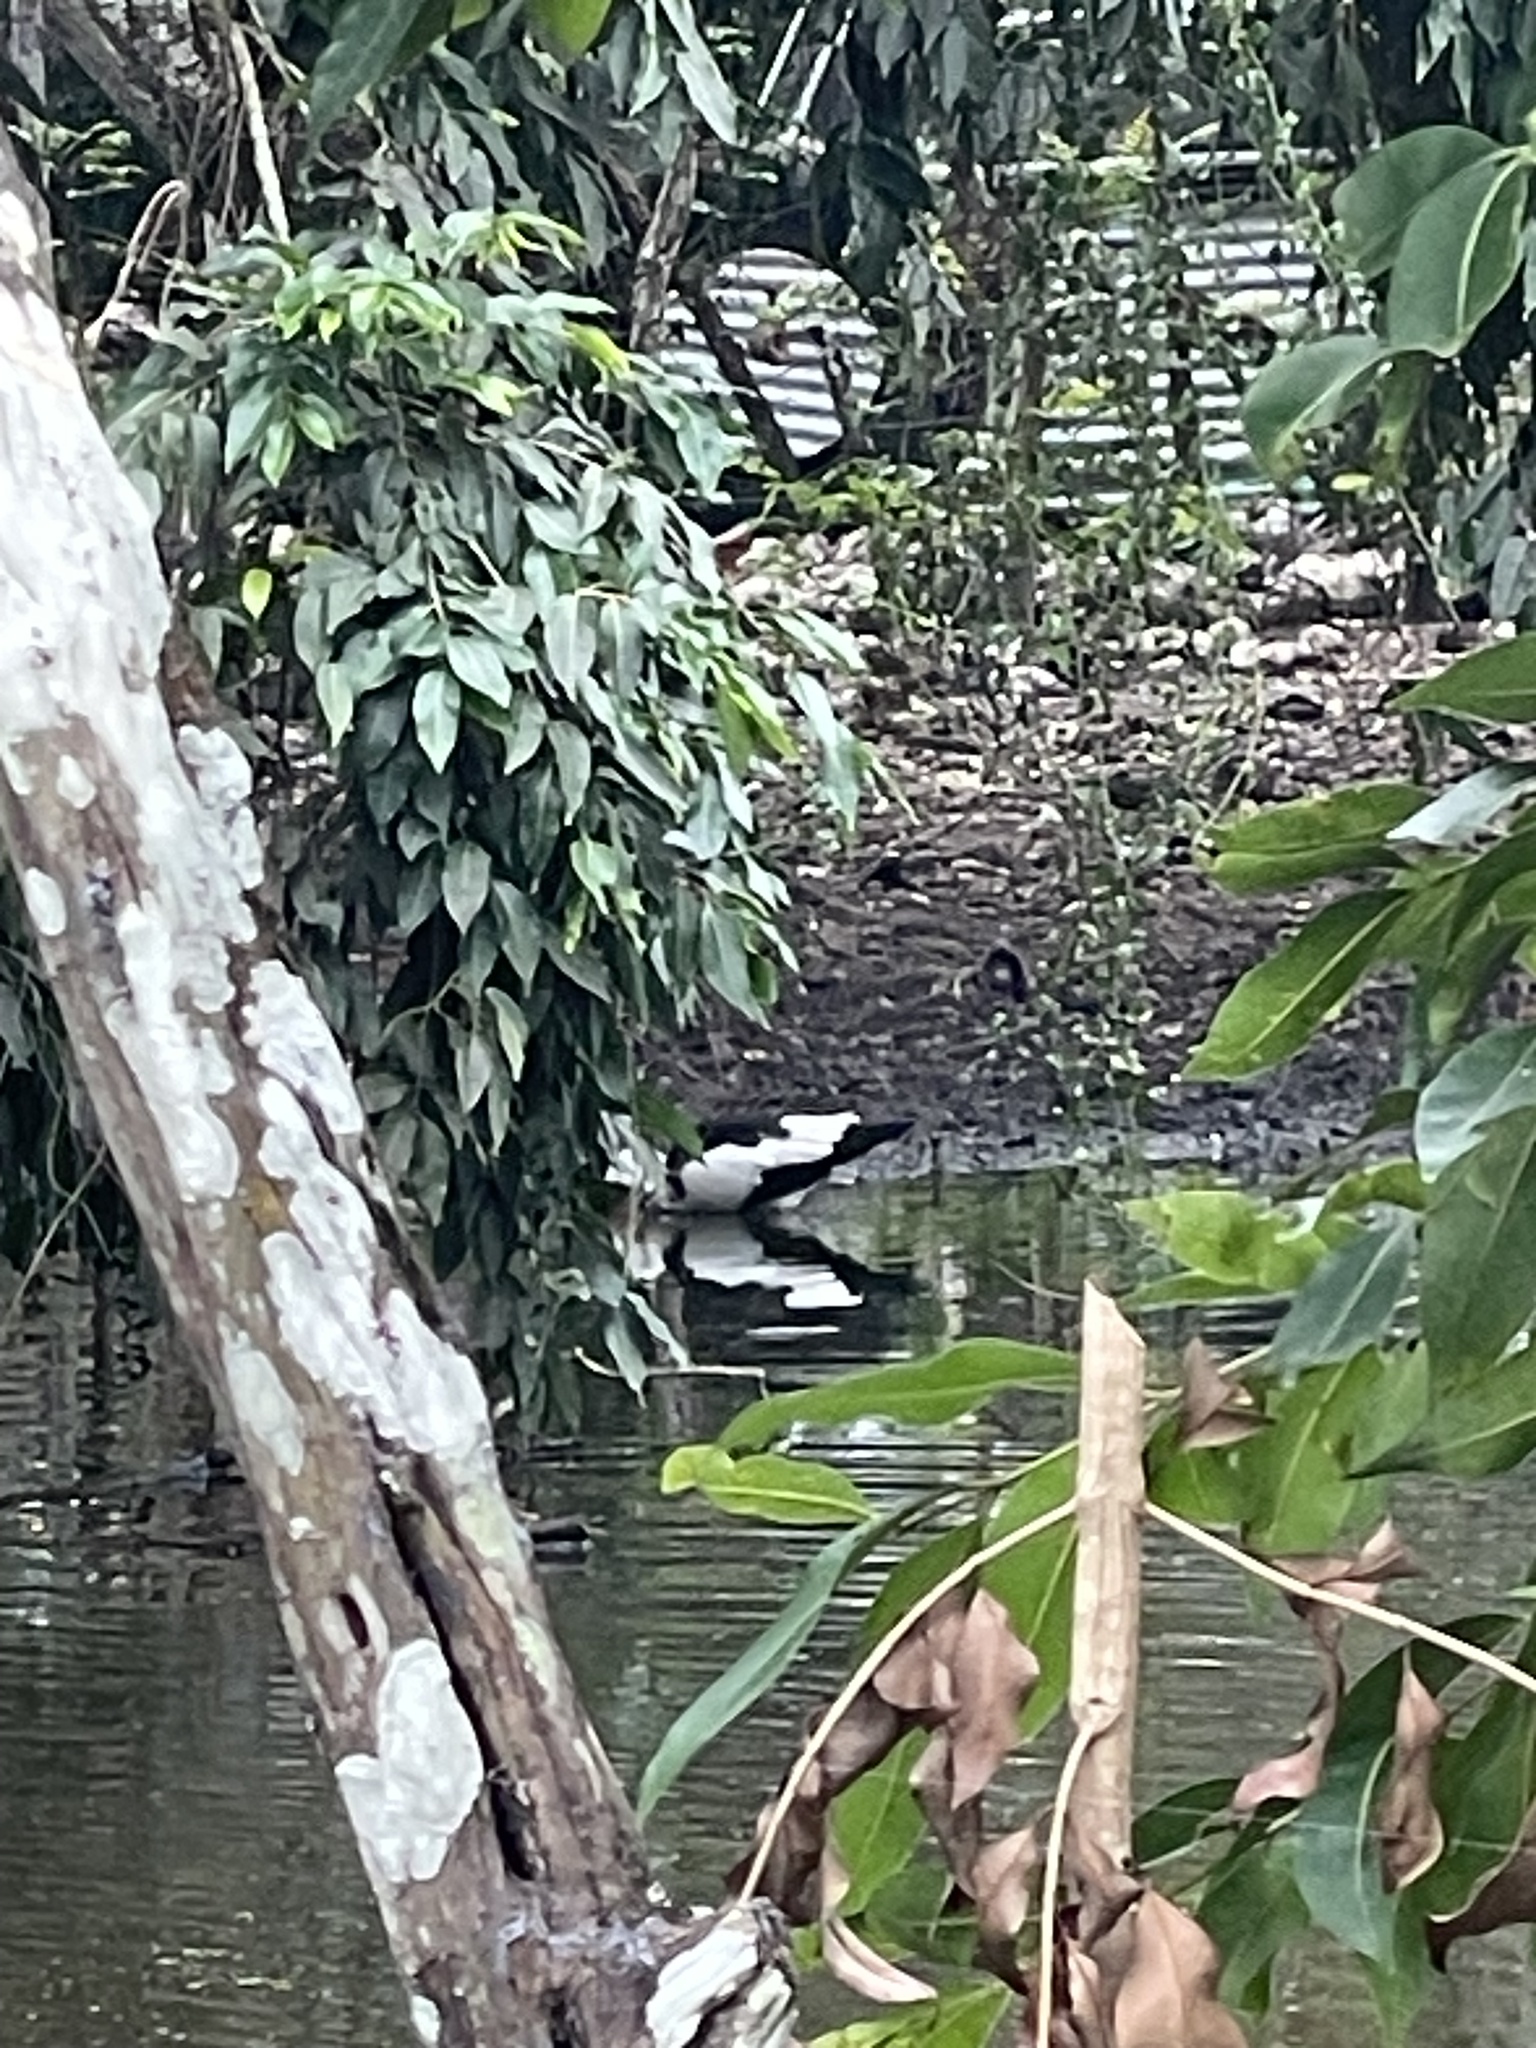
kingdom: Animalia
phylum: Chordata
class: Aves
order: Anseriformes
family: Anatidae
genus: Cairina
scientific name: Cairina moschata
